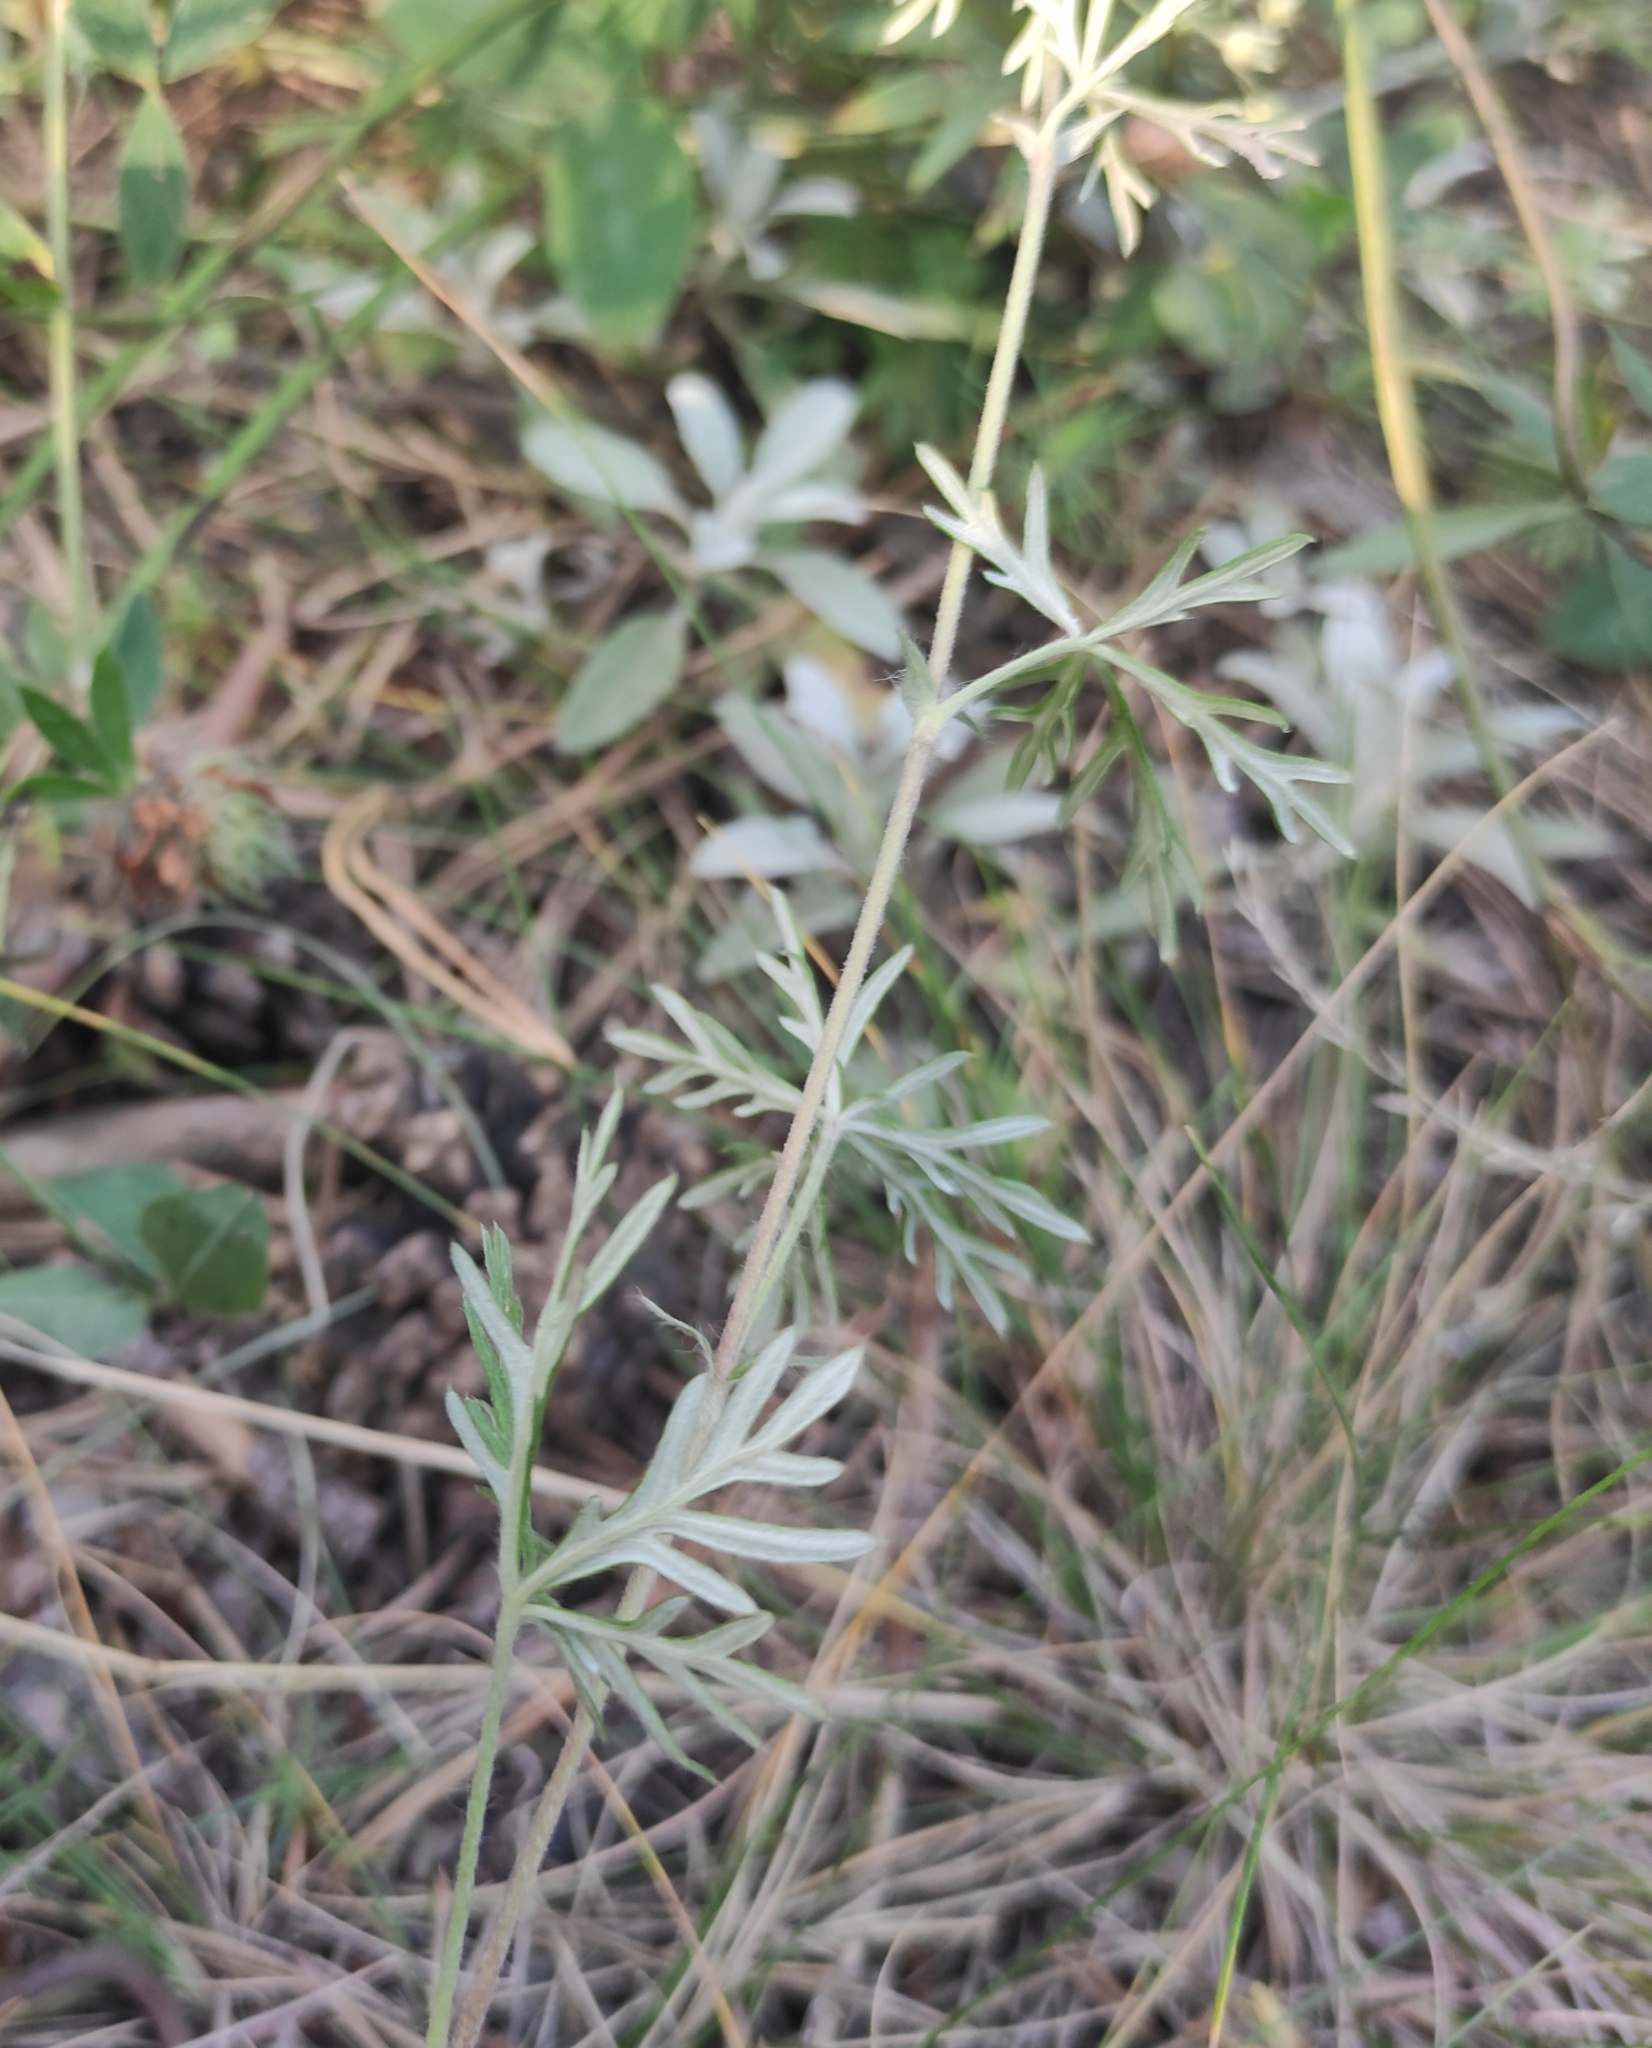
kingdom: Plantae
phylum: Tracheophyta
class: Magnoliopsida
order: Rosales
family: Rosaceae
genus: Potentilla
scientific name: Potentilla argentea
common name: Hoary cinquefoil
